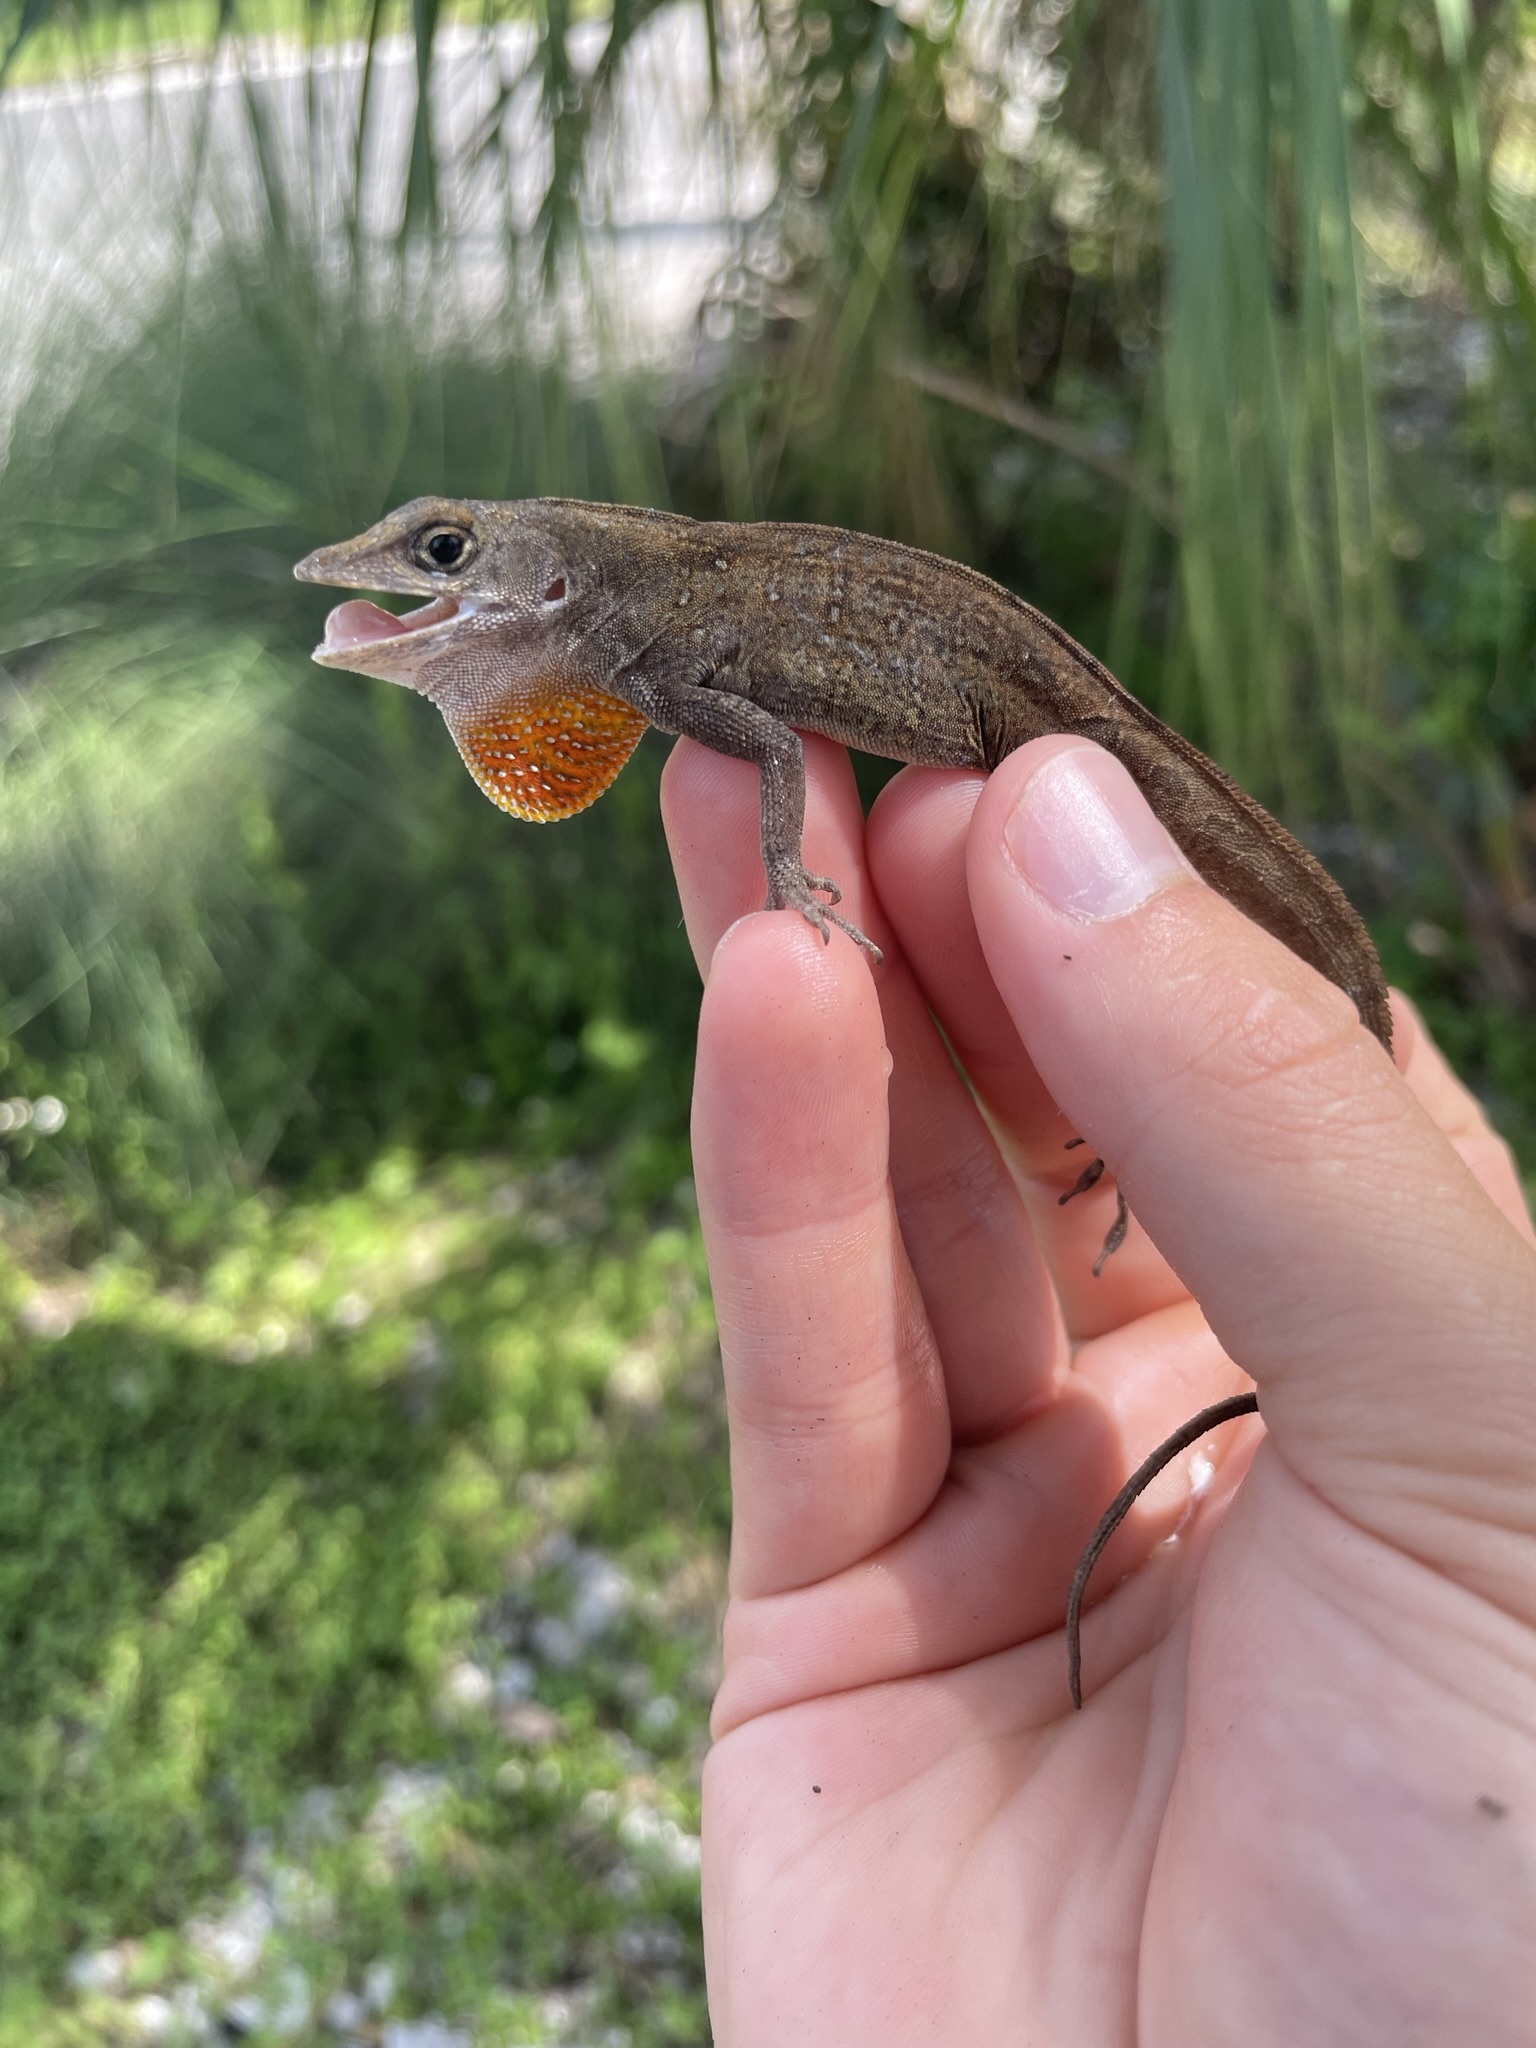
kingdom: Animalia
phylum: Chordata
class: Squamata
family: Dactyloidae
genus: Anolis
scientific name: Anolis sagrei
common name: Brown anole
